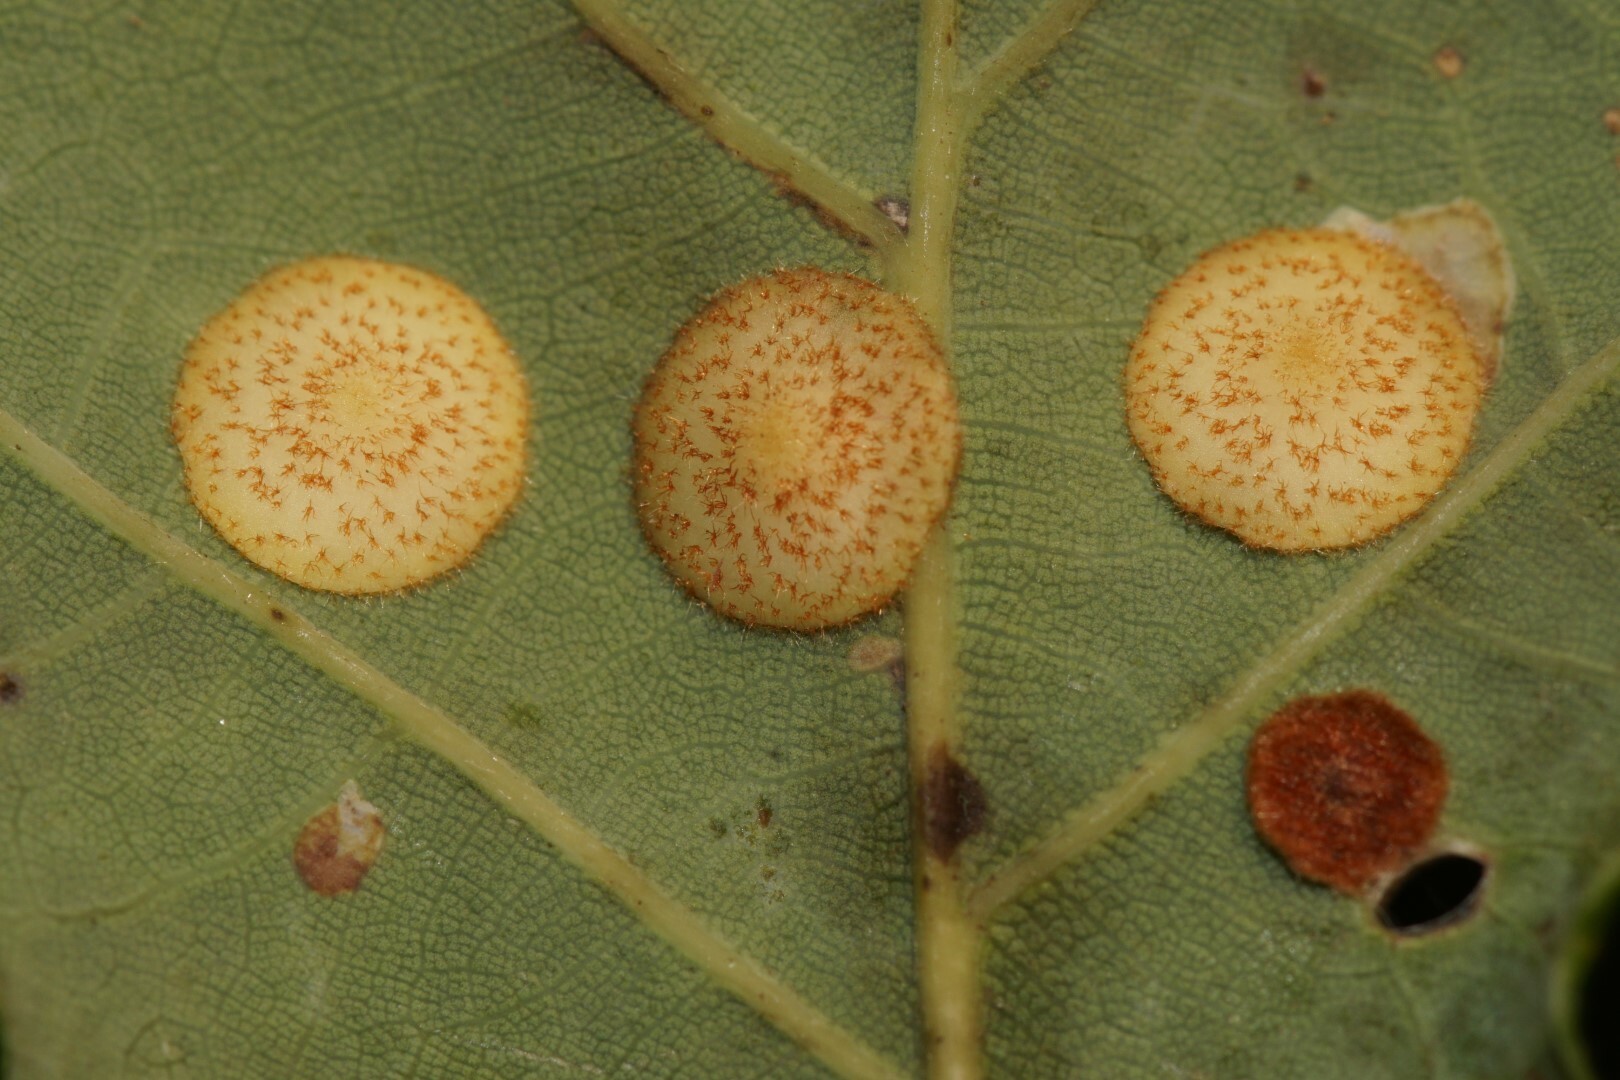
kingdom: Animalia
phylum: Arthropoda
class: Insecta
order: Hymenoptera
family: Cynipidae
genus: Neuroterus
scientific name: Neuroterus quercusbaccarum
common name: Common spangle gall
